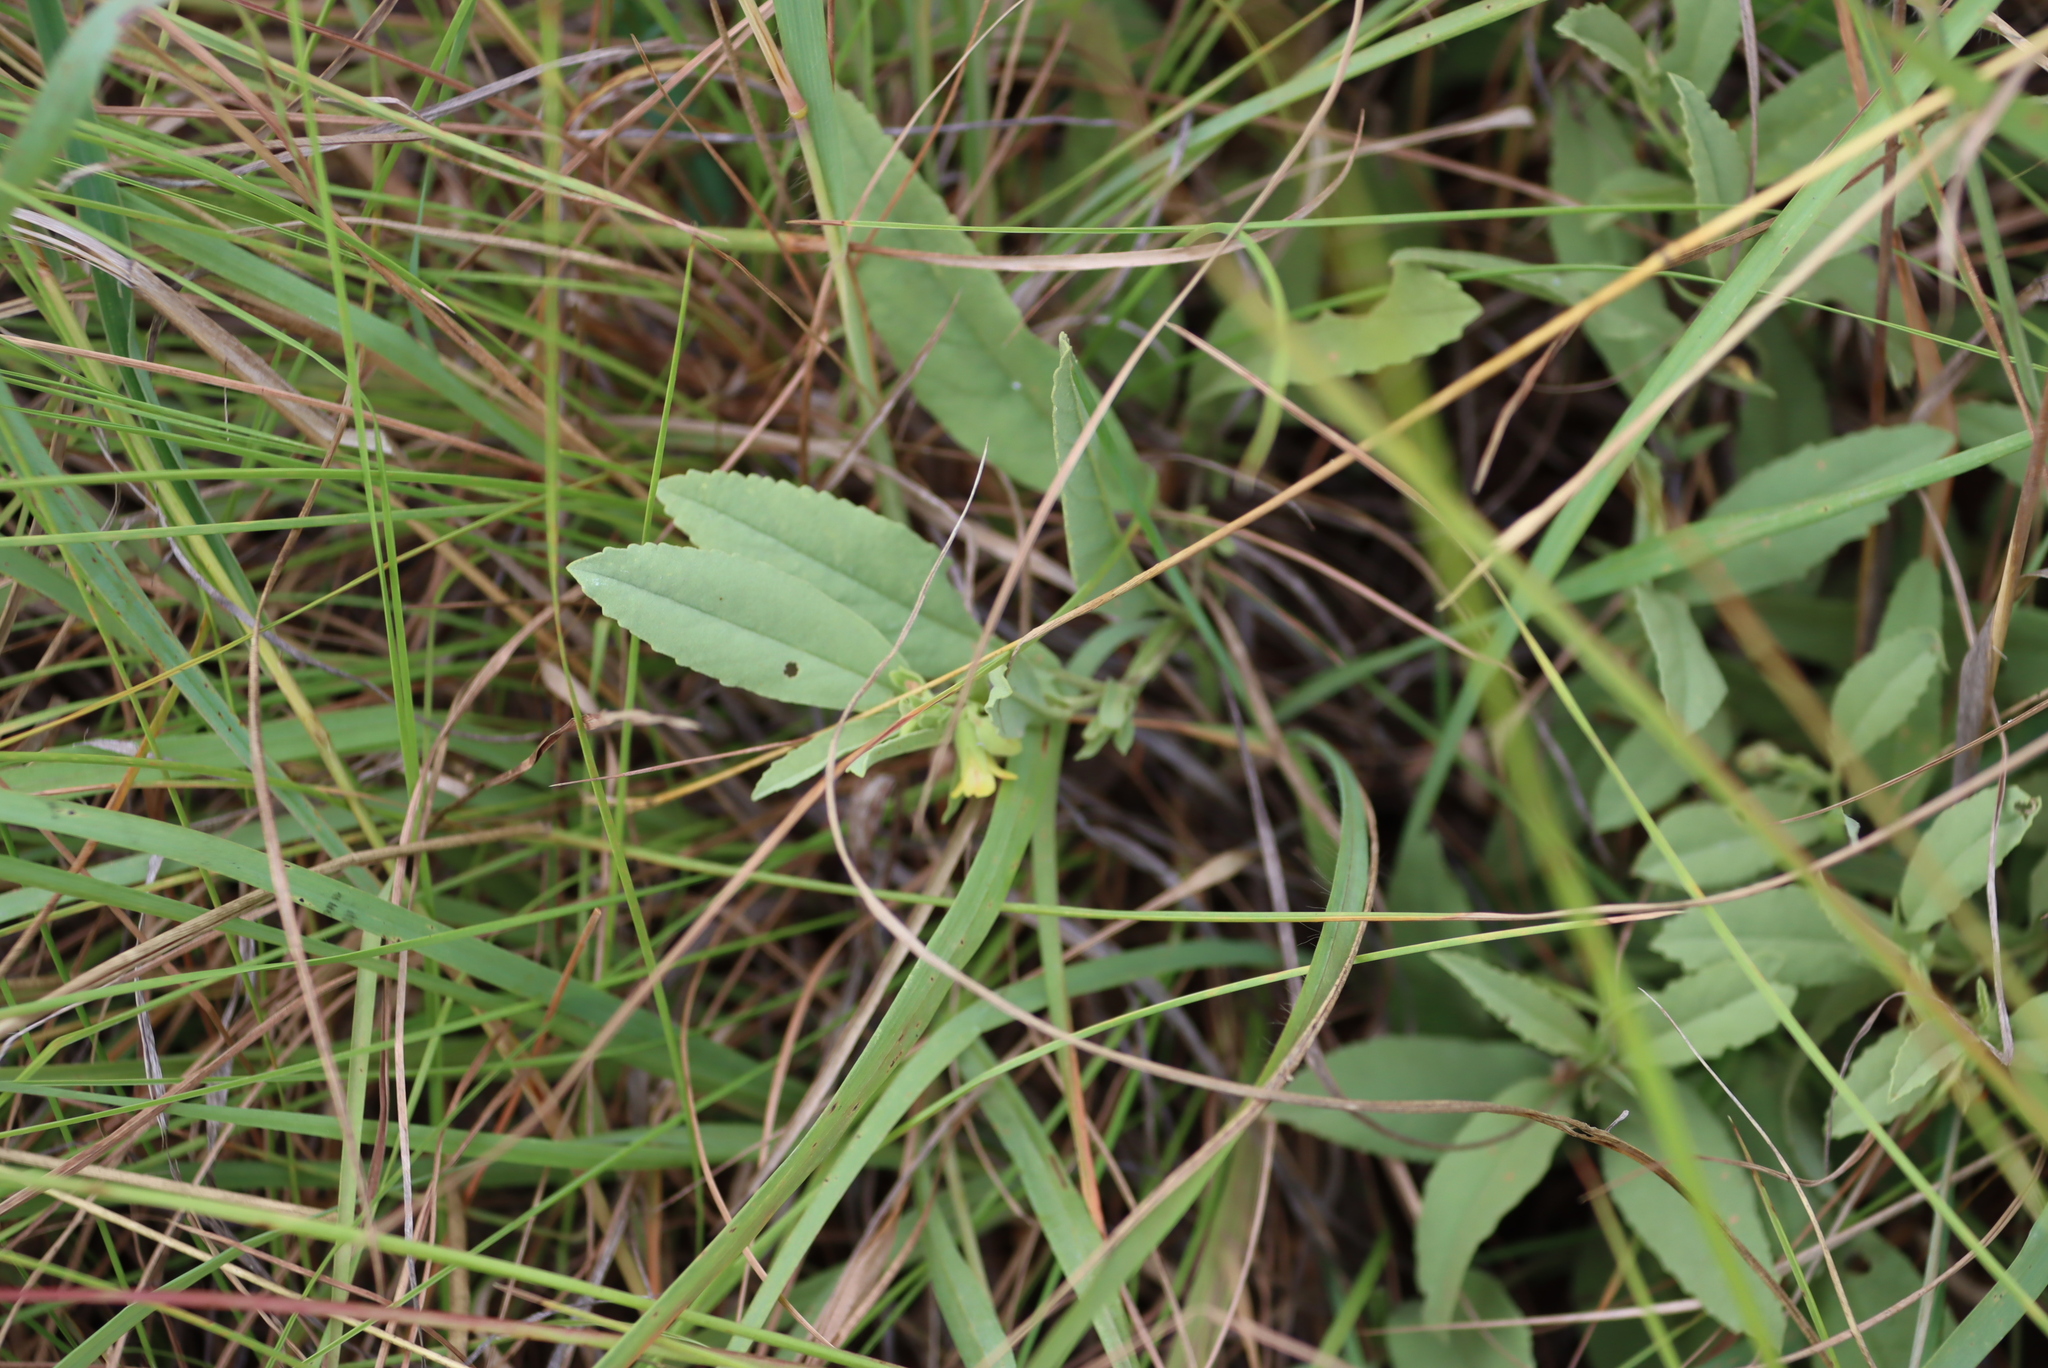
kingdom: Plantae
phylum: Tracheophyta
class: Magnoliopsida
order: Malvales
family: Malvaceae
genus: Hermannia
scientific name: Hermannia montana
